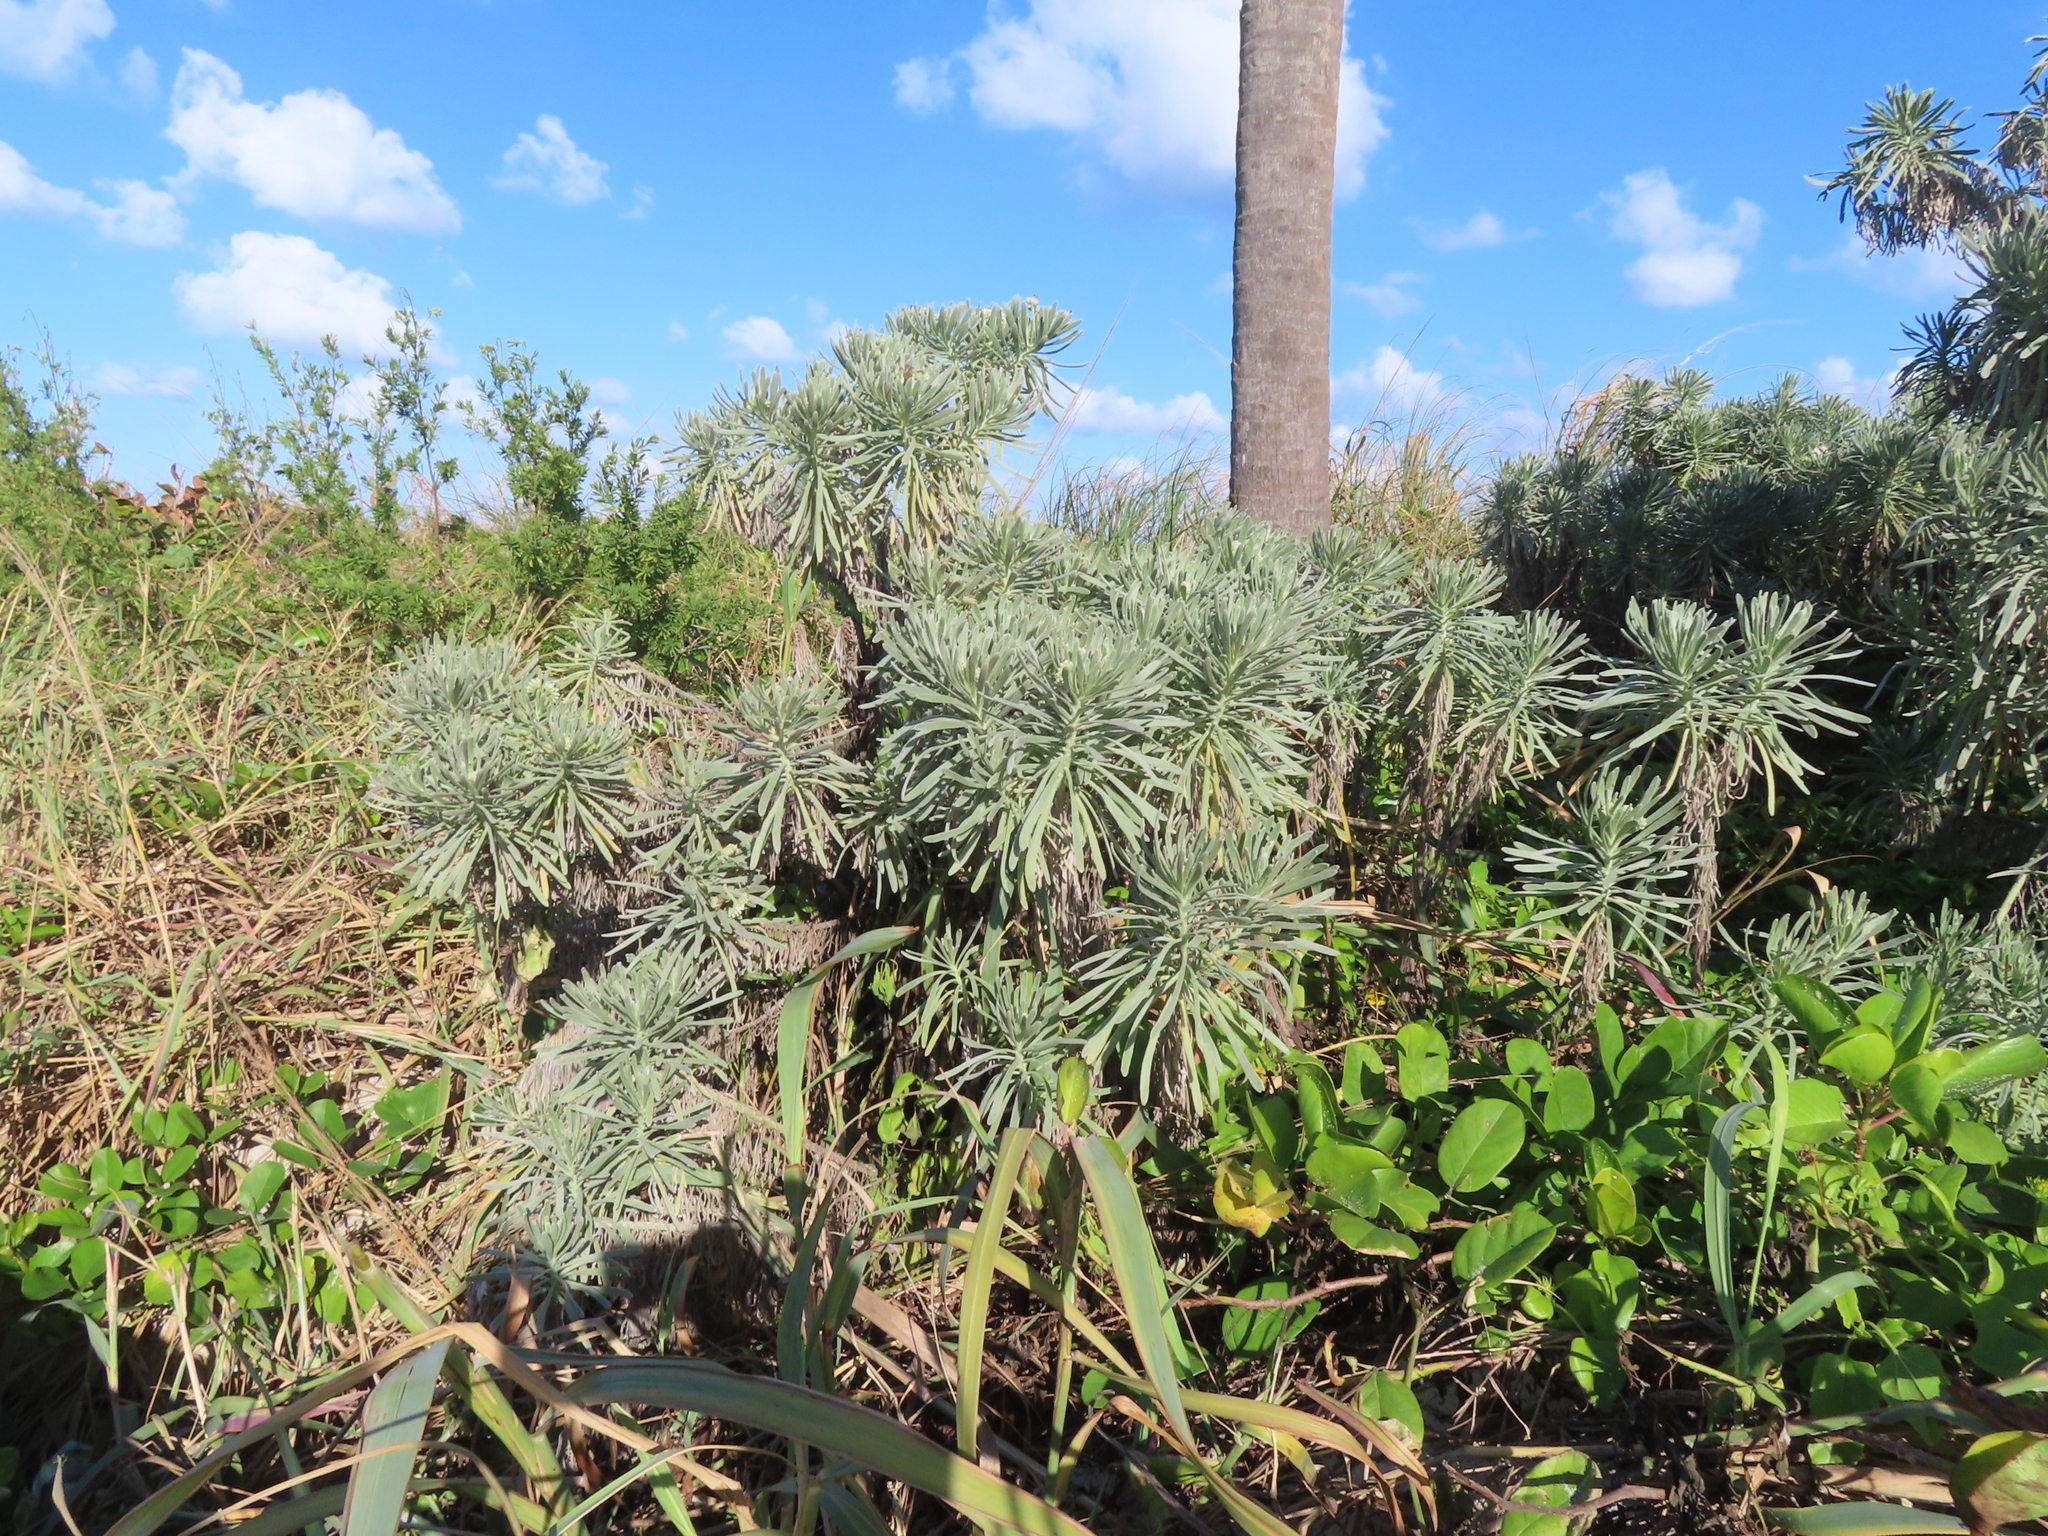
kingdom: Plantae
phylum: Tracheophyta
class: Magnoliopsida
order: Boraginales
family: Heliotropiaceae
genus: Tournefortia
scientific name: Tournefortia gnaphalodes
